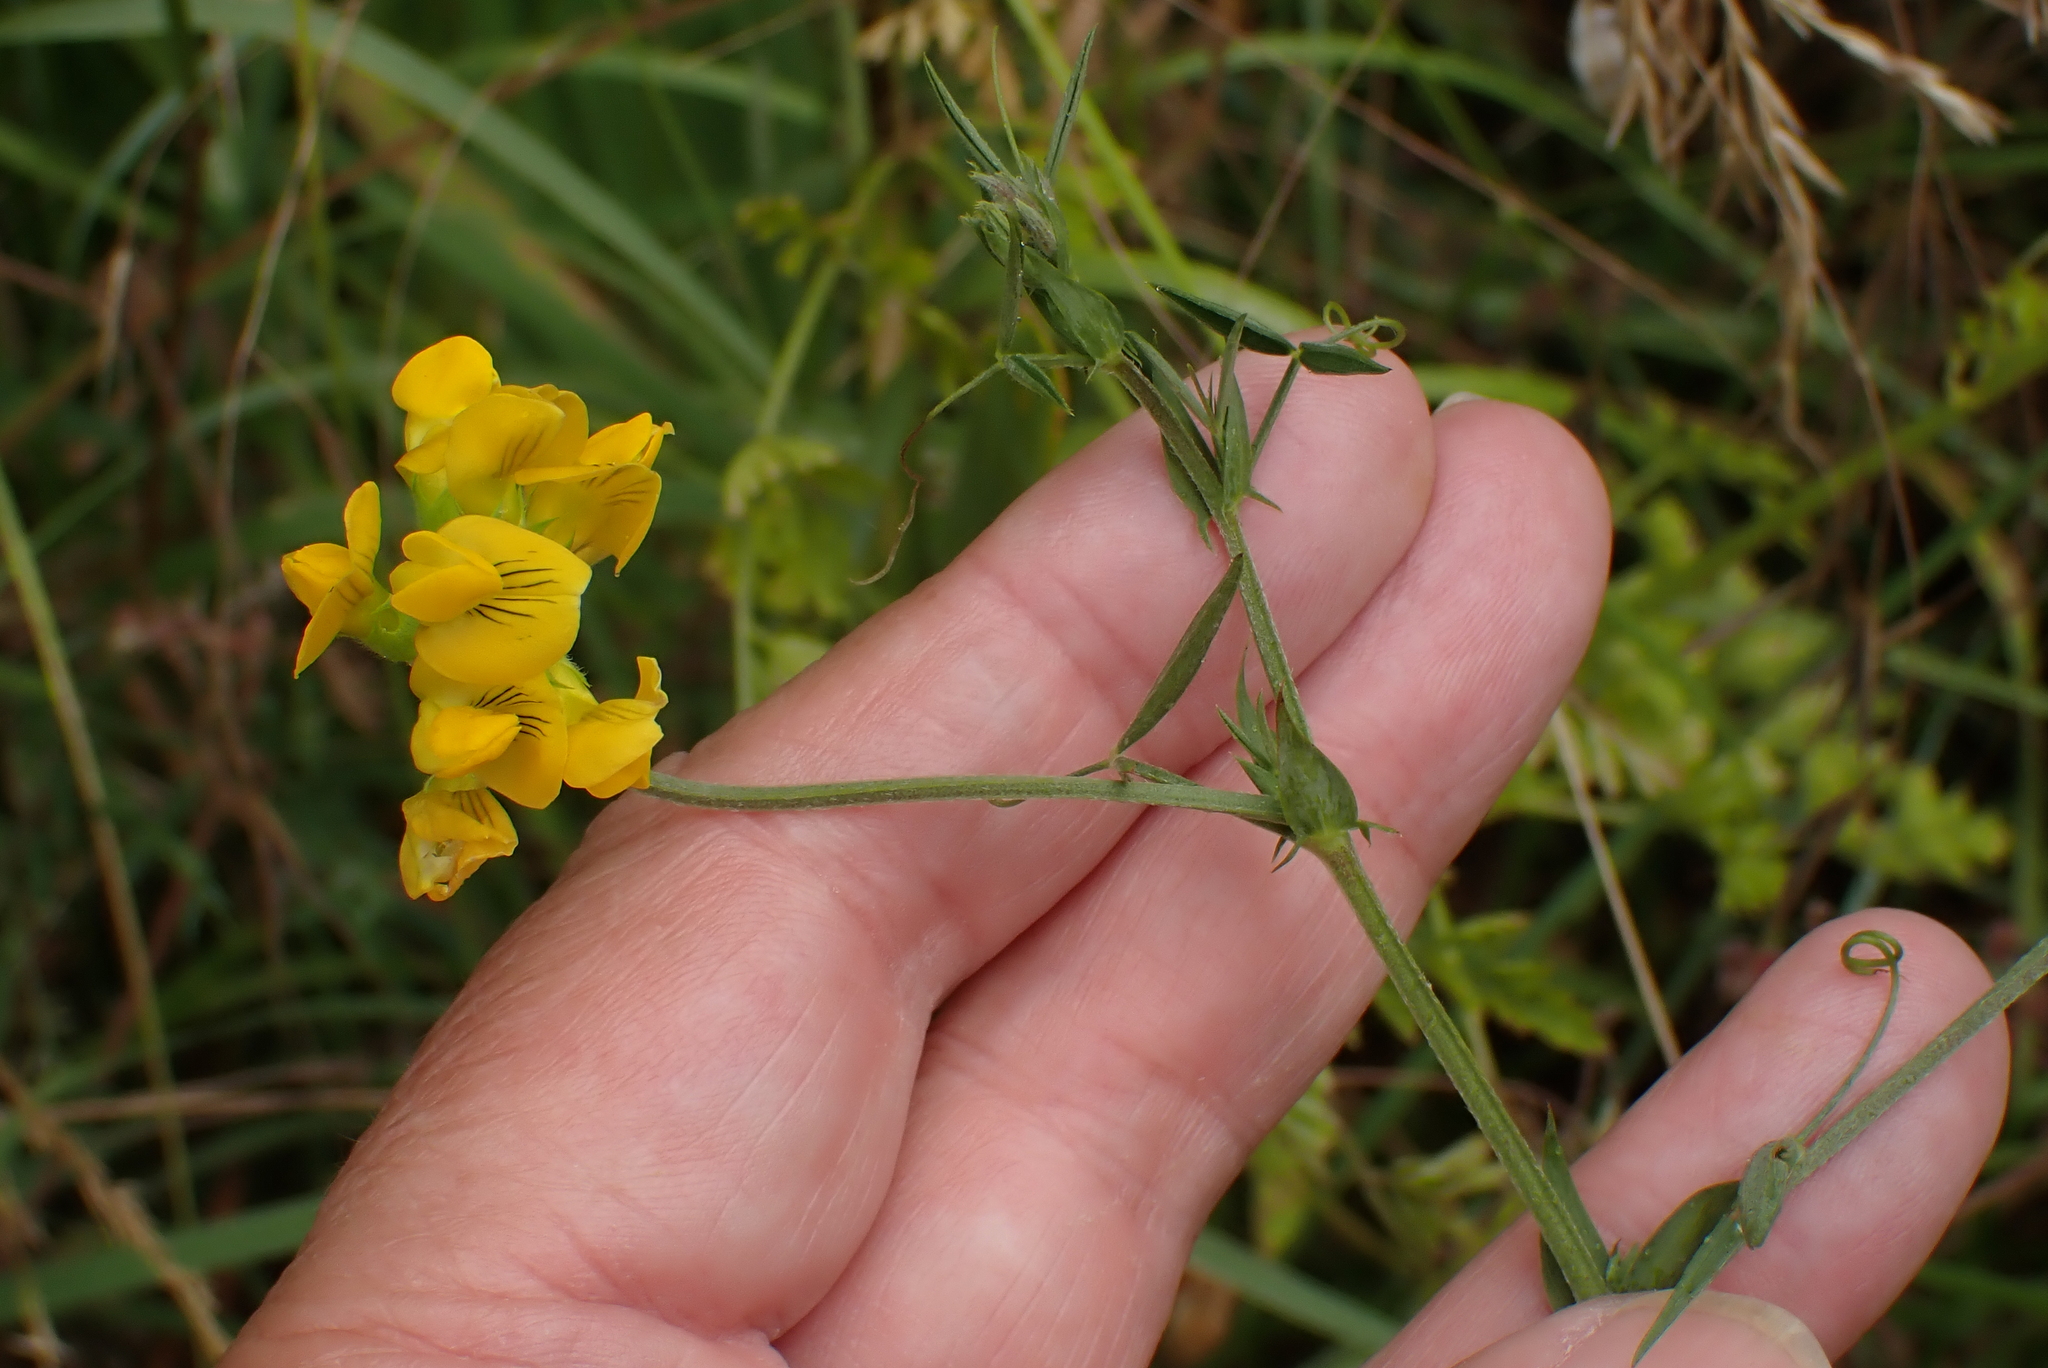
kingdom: Plantae
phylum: Tracheophyta
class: Magnoliopsida
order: Fabales
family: Fabaceae
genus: Lathyrus
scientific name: Lathyrus pratensis
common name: Meadow vetchling
